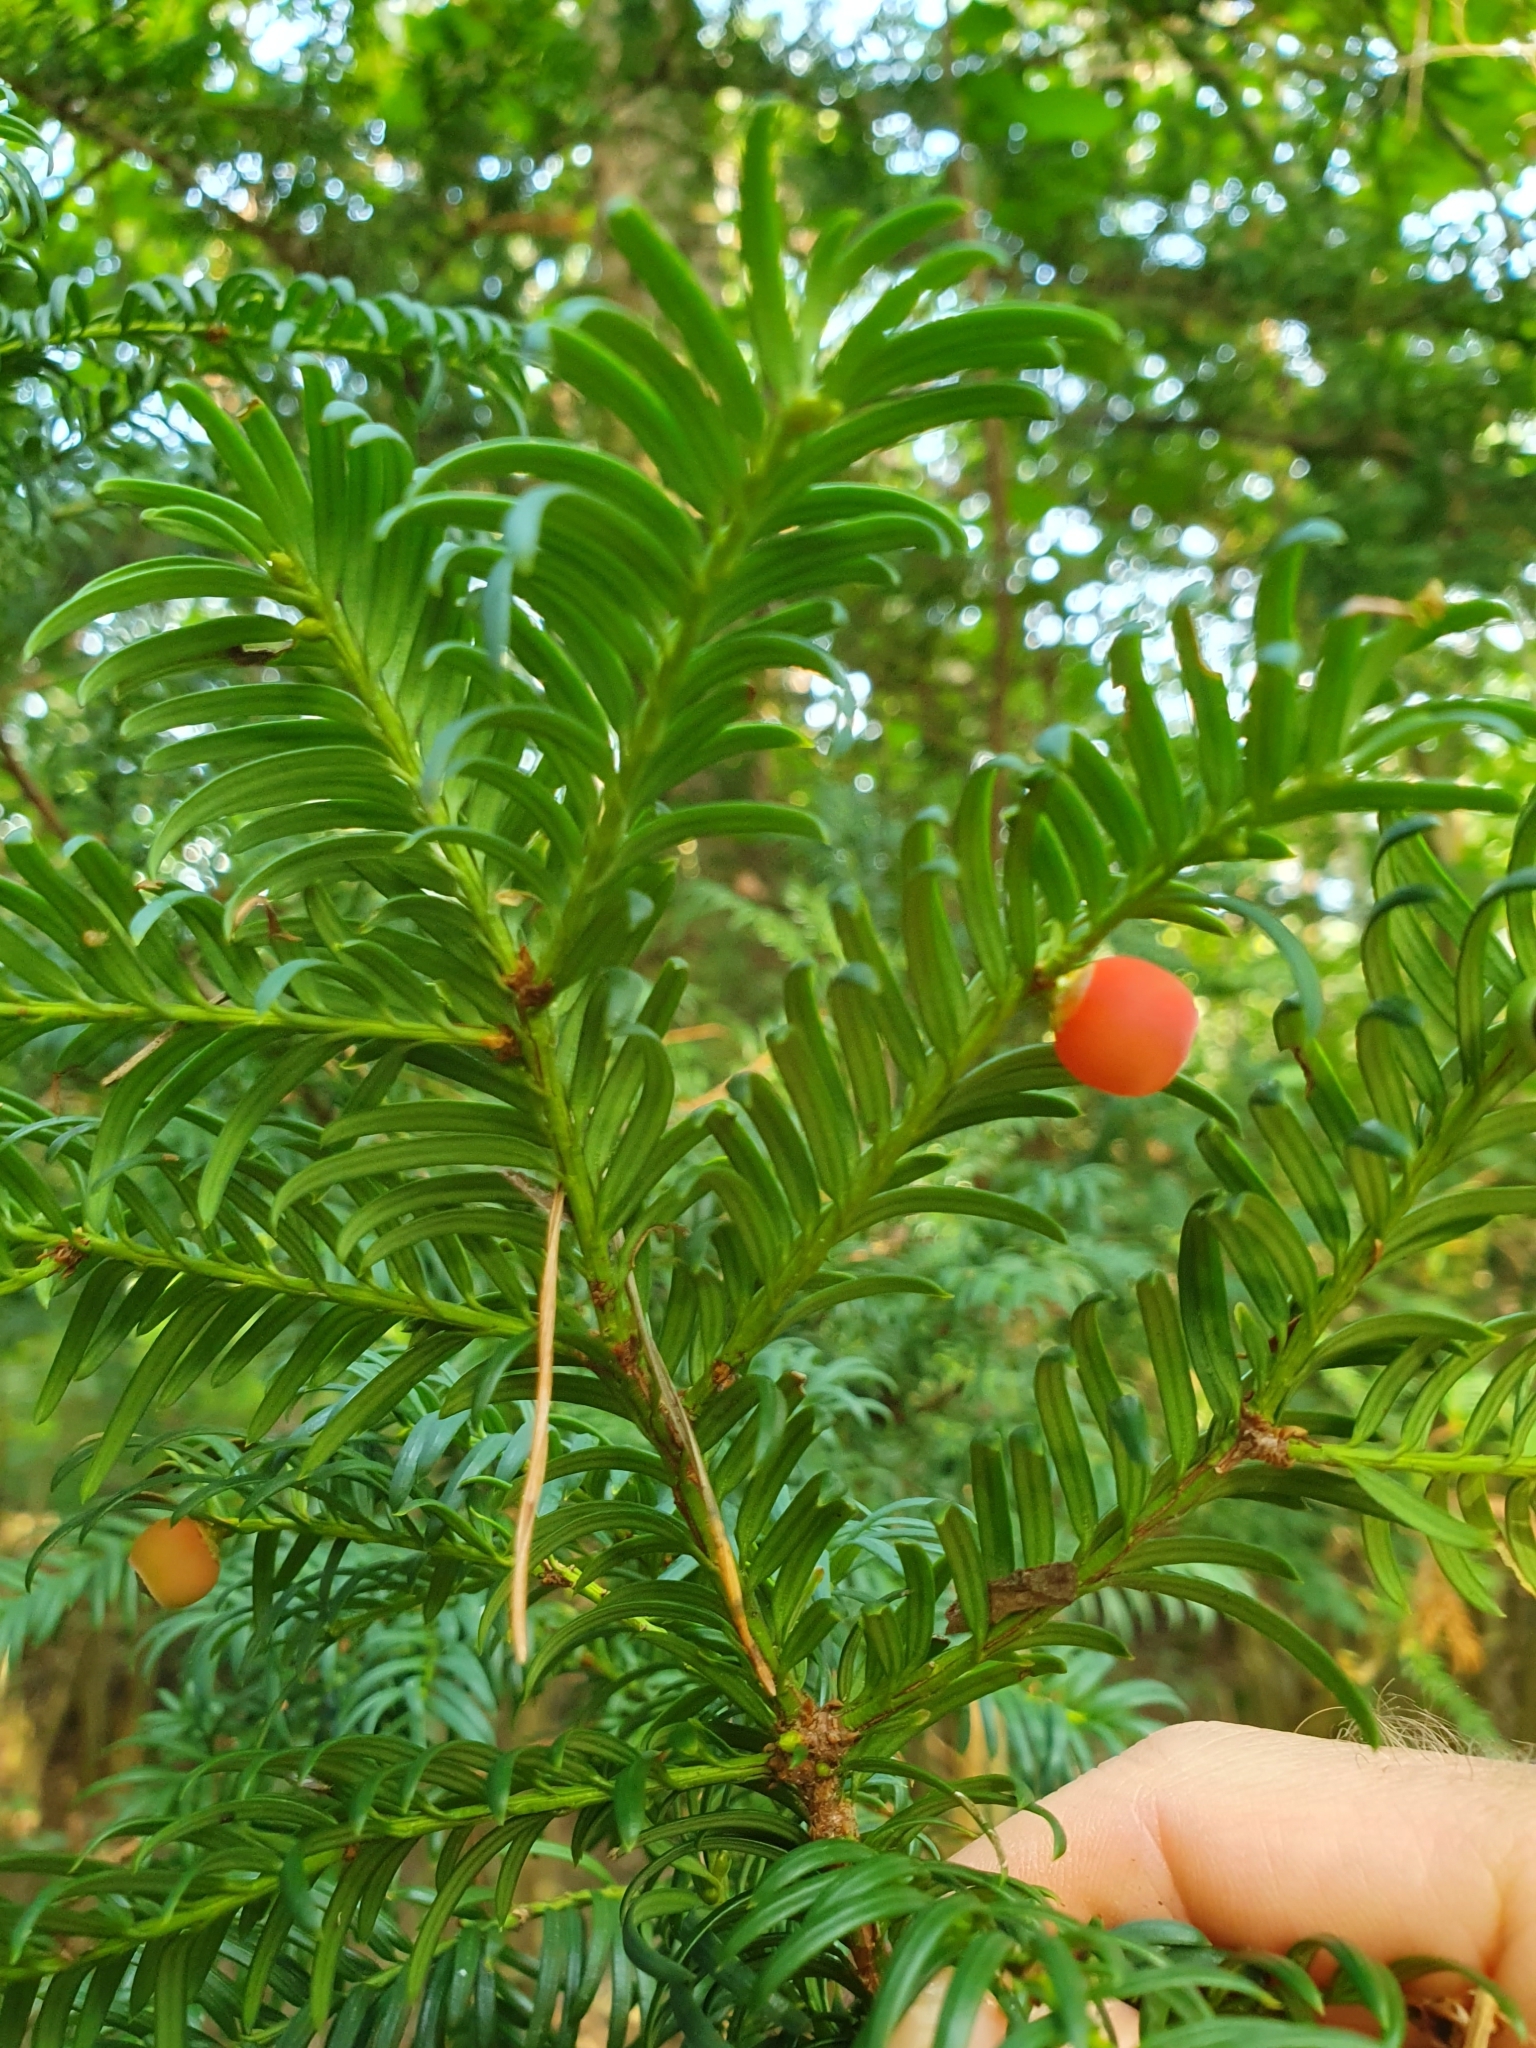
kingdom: Plantae
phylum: Tracheophyta
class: Pinopsida
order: Pinales
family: Taxaceae
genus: Taxus
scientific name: Taxus baccata
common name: Yew
